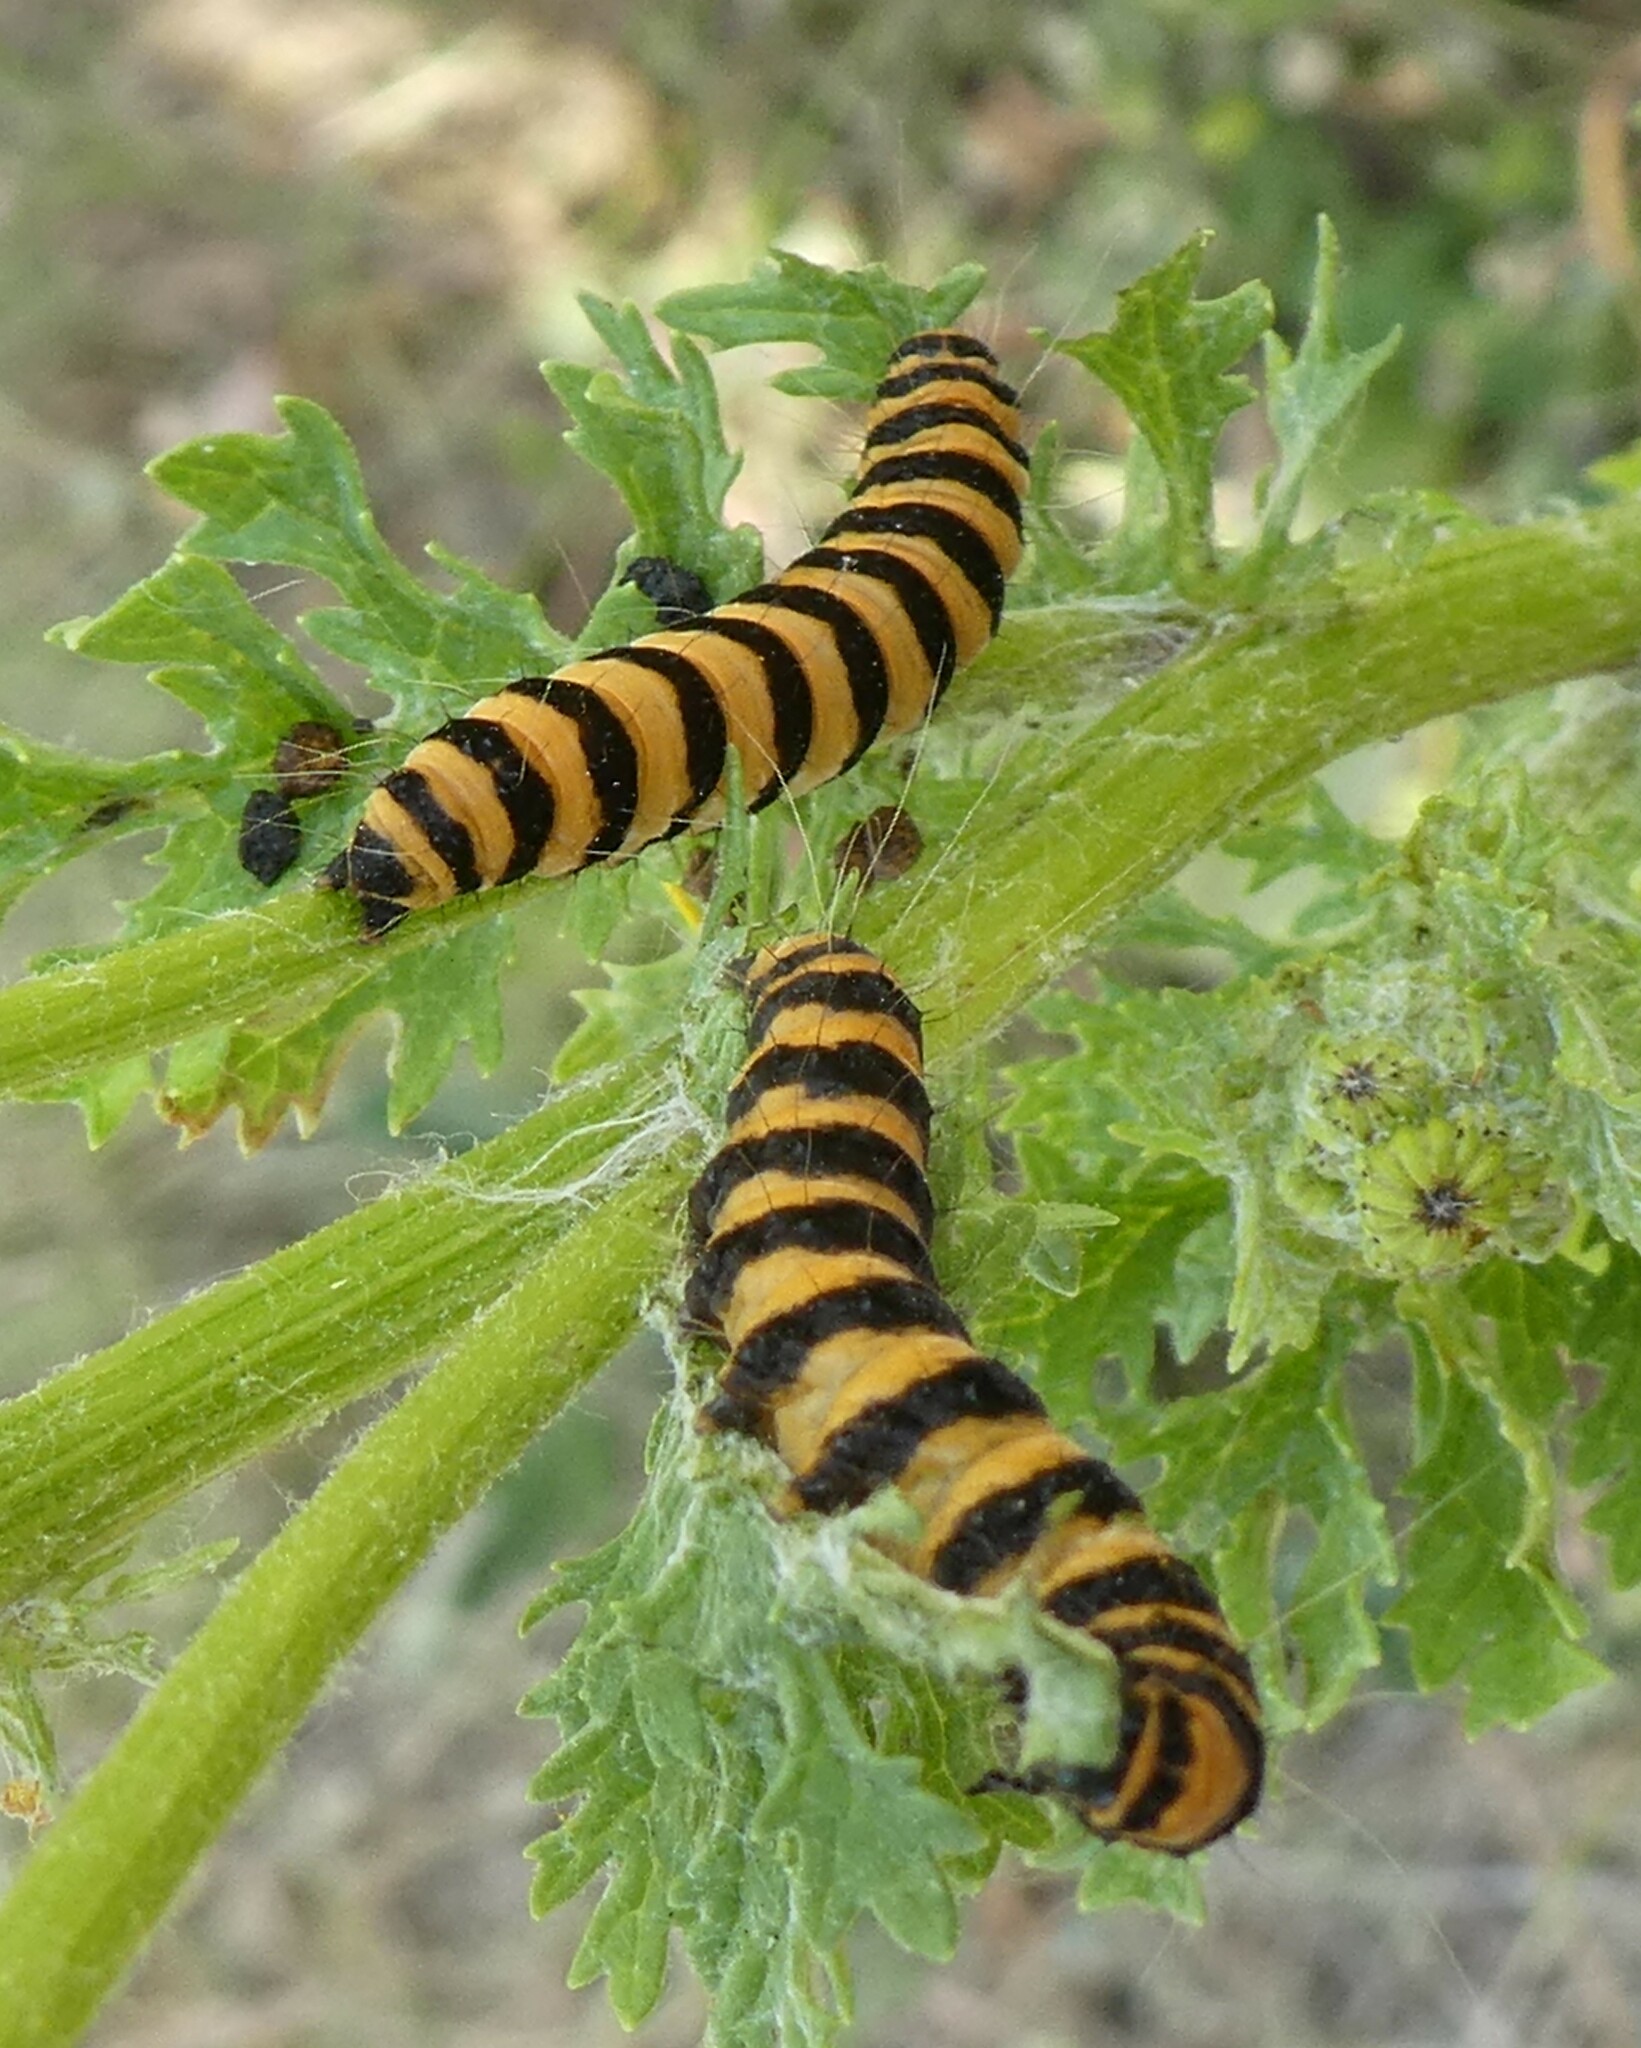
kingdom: Animalia
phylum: Arthropoda
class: Insecta
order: Lepidoptera
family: Erebidae
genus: Tyria
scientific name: Tyria jacobaeae
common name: Cinnabar
